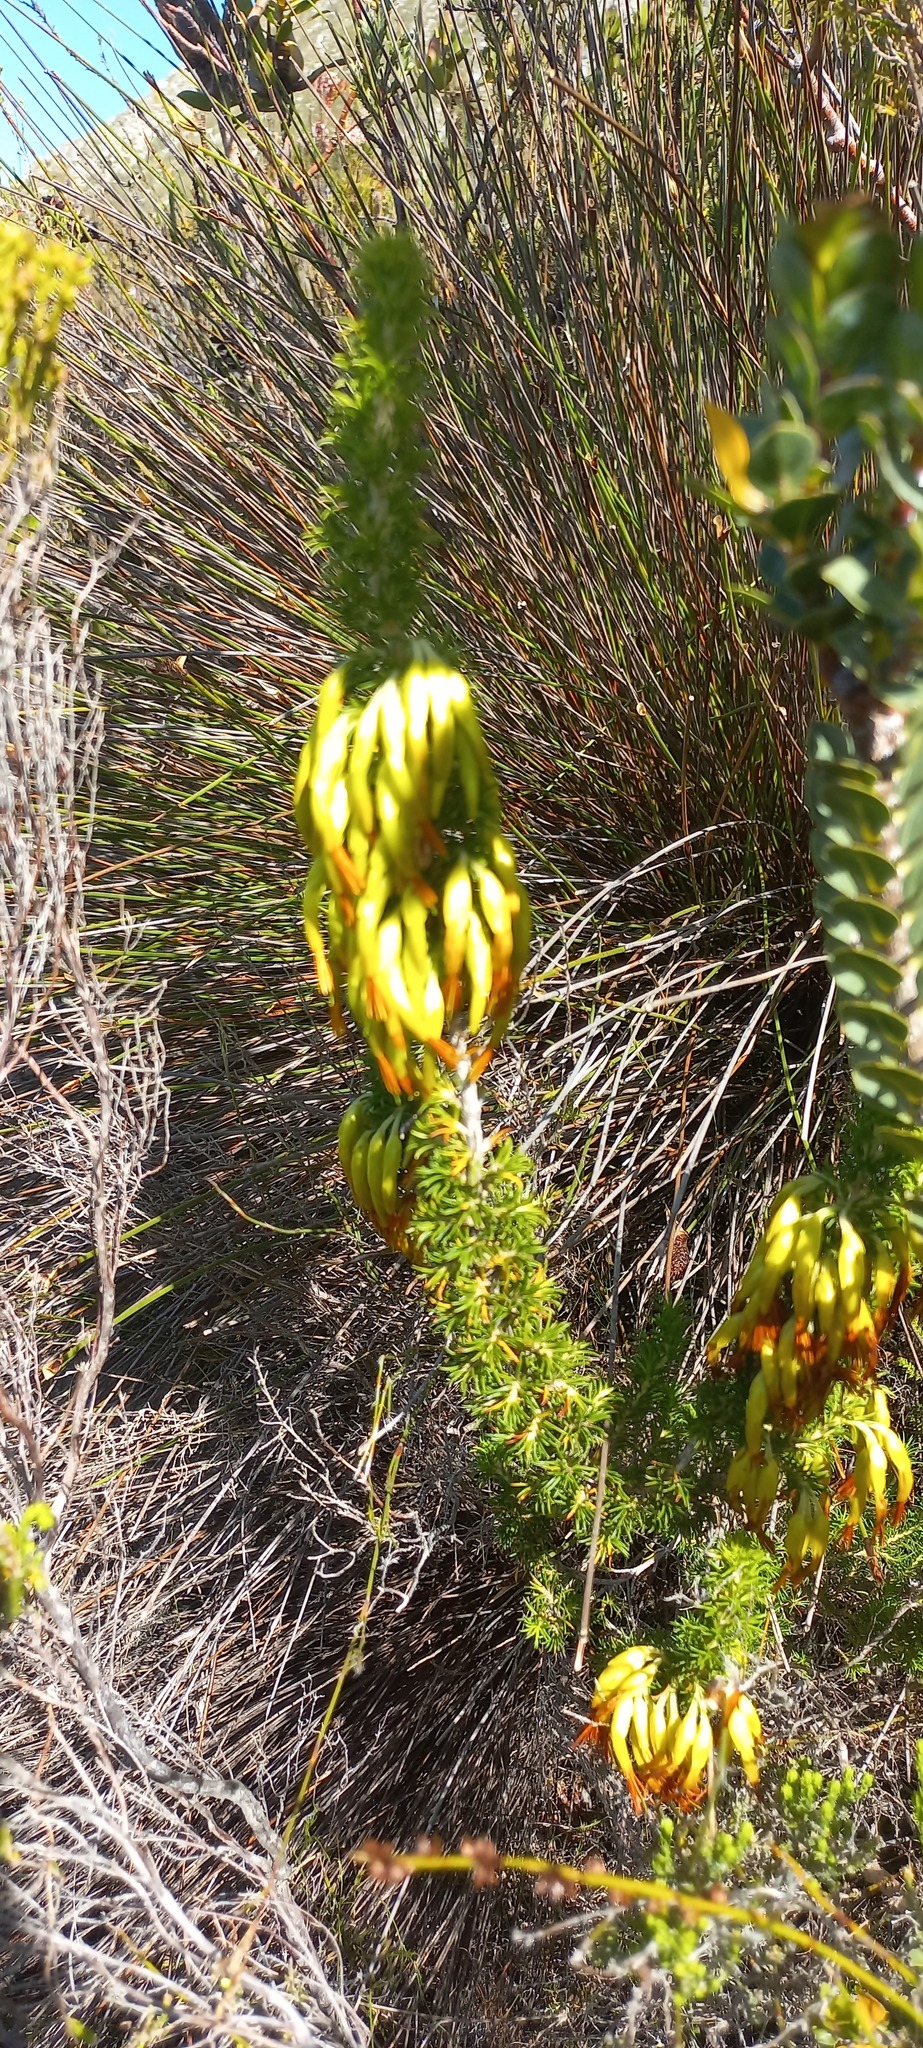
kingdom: Plantae
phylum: Tracheophyta
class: Magnoliopsida
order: Ericales
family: Ericaceae
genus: Erica
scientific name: Erica coccinea
